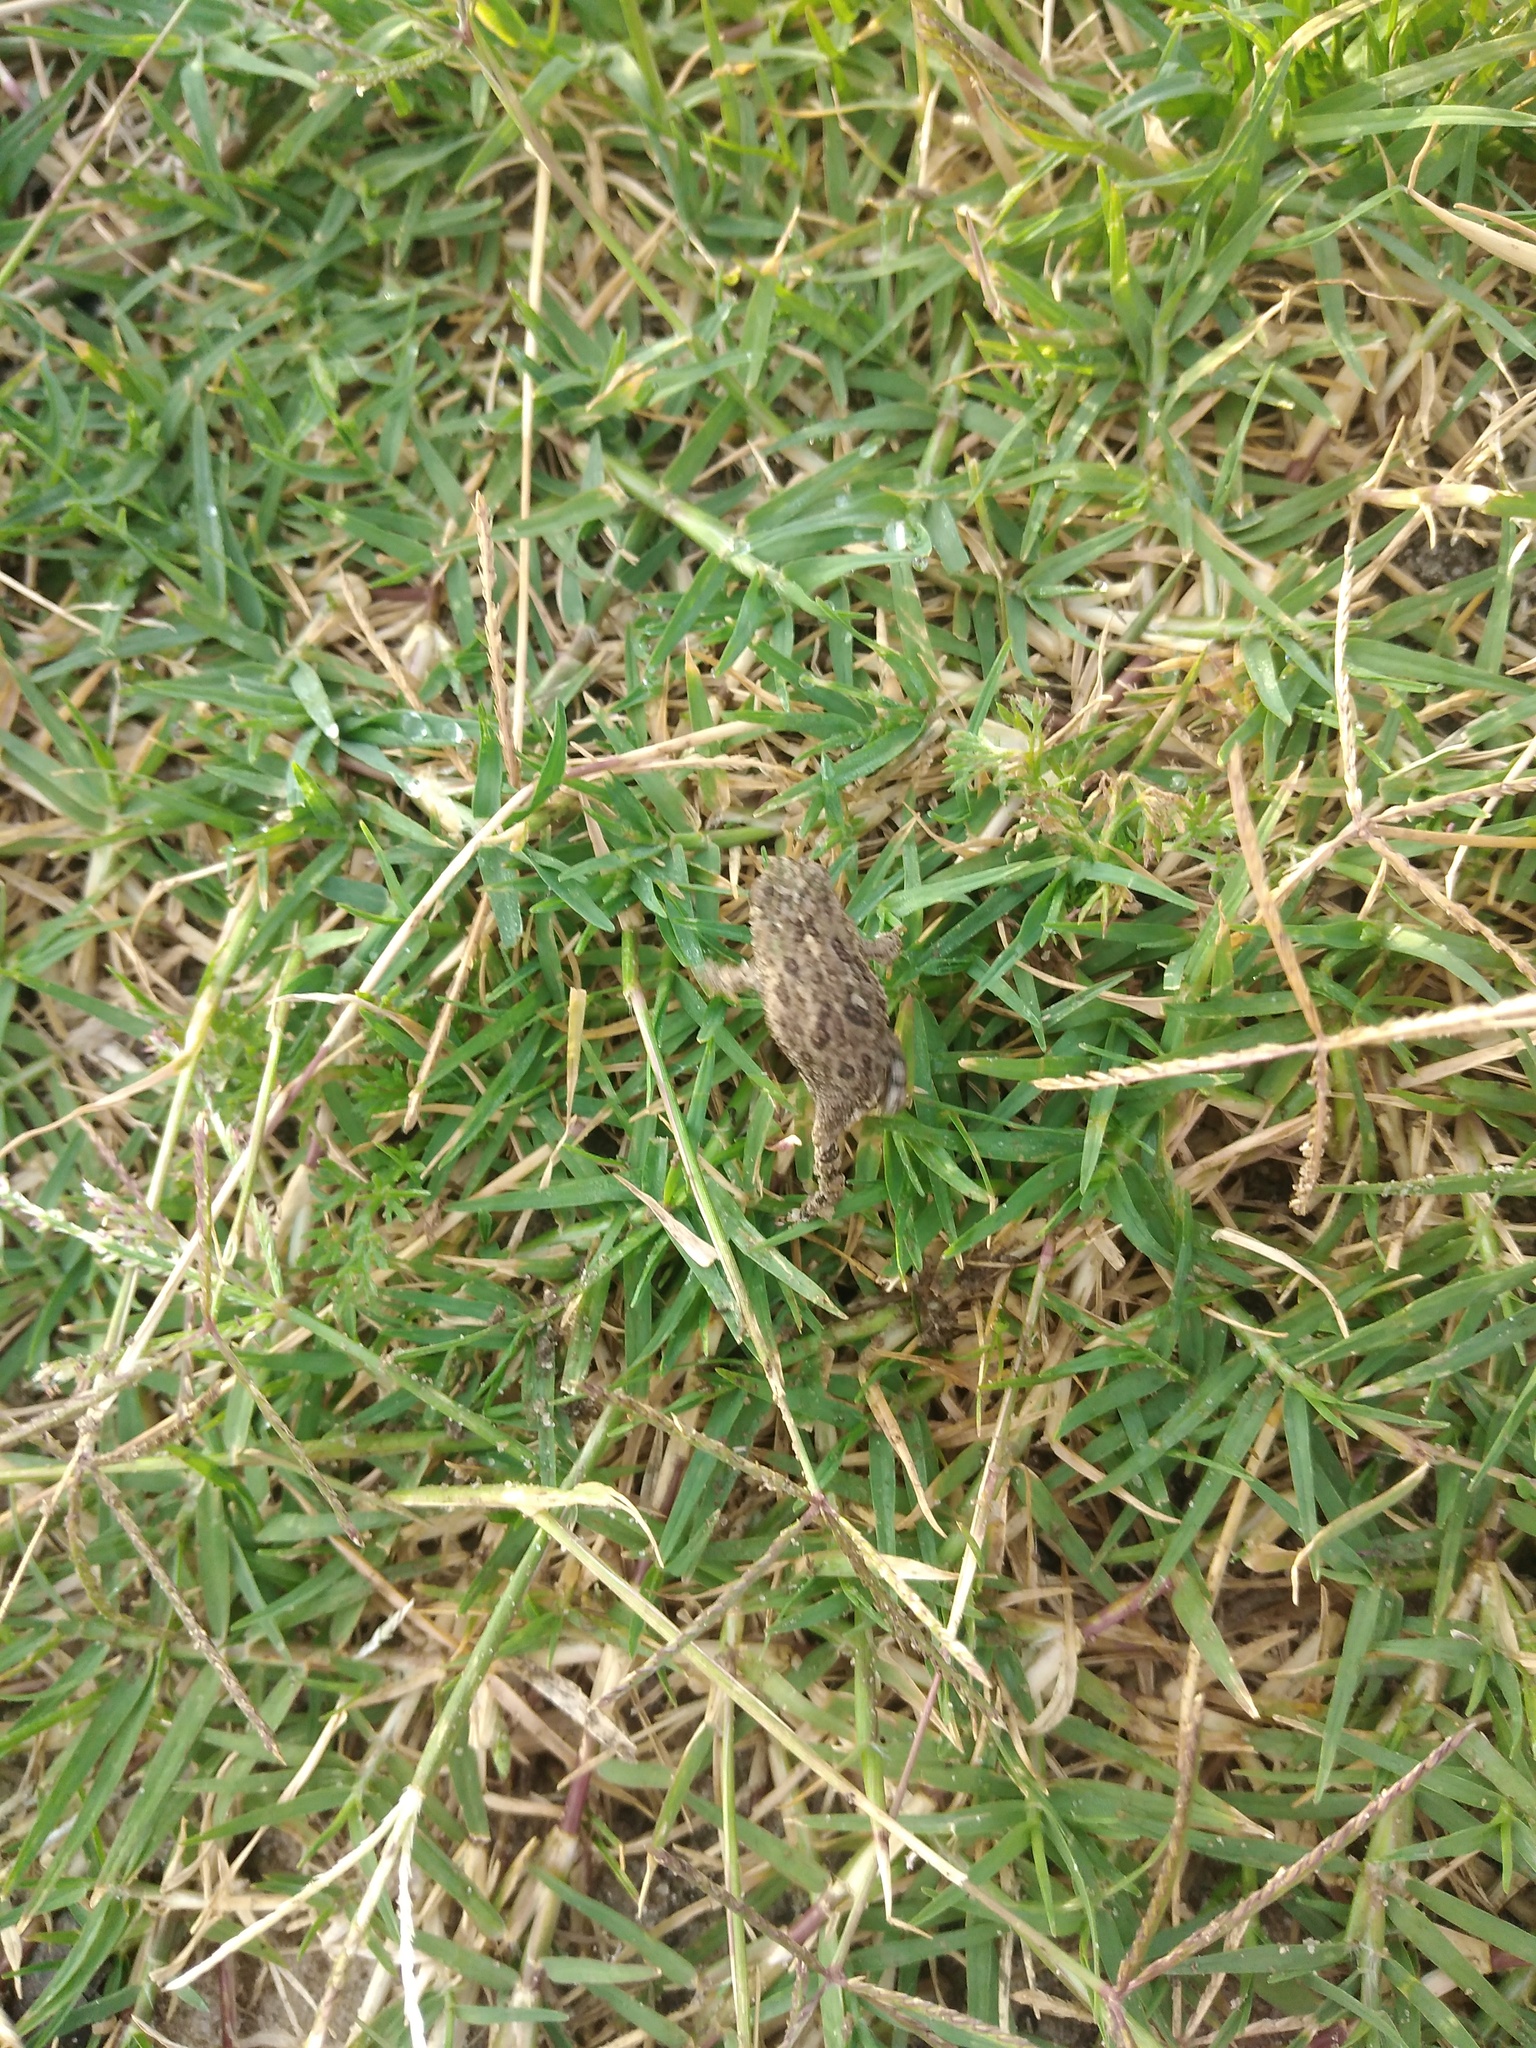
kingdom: Animalia
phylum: Chordata
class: Amphibia
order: Anura
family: Bufonidae
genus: Rhinella
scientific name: Rhinella arenarum
